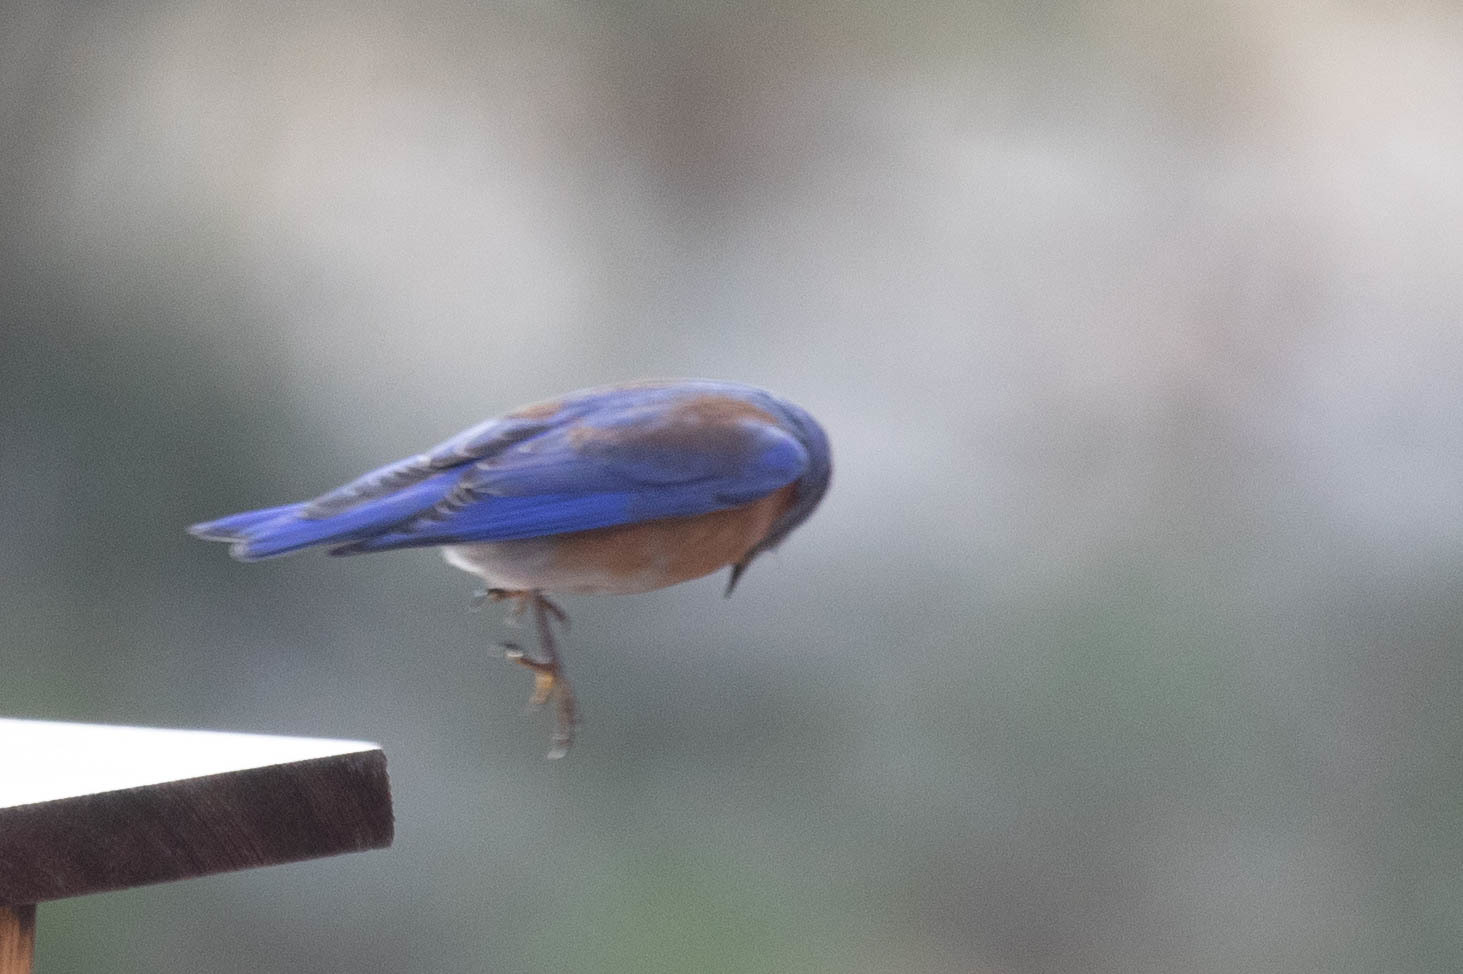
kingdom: Animalia
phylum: Chordata
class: Aves
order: Passeriformes
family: Turdidae
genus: Sialia
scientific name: Sialia mexicana
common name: Western bluebird
